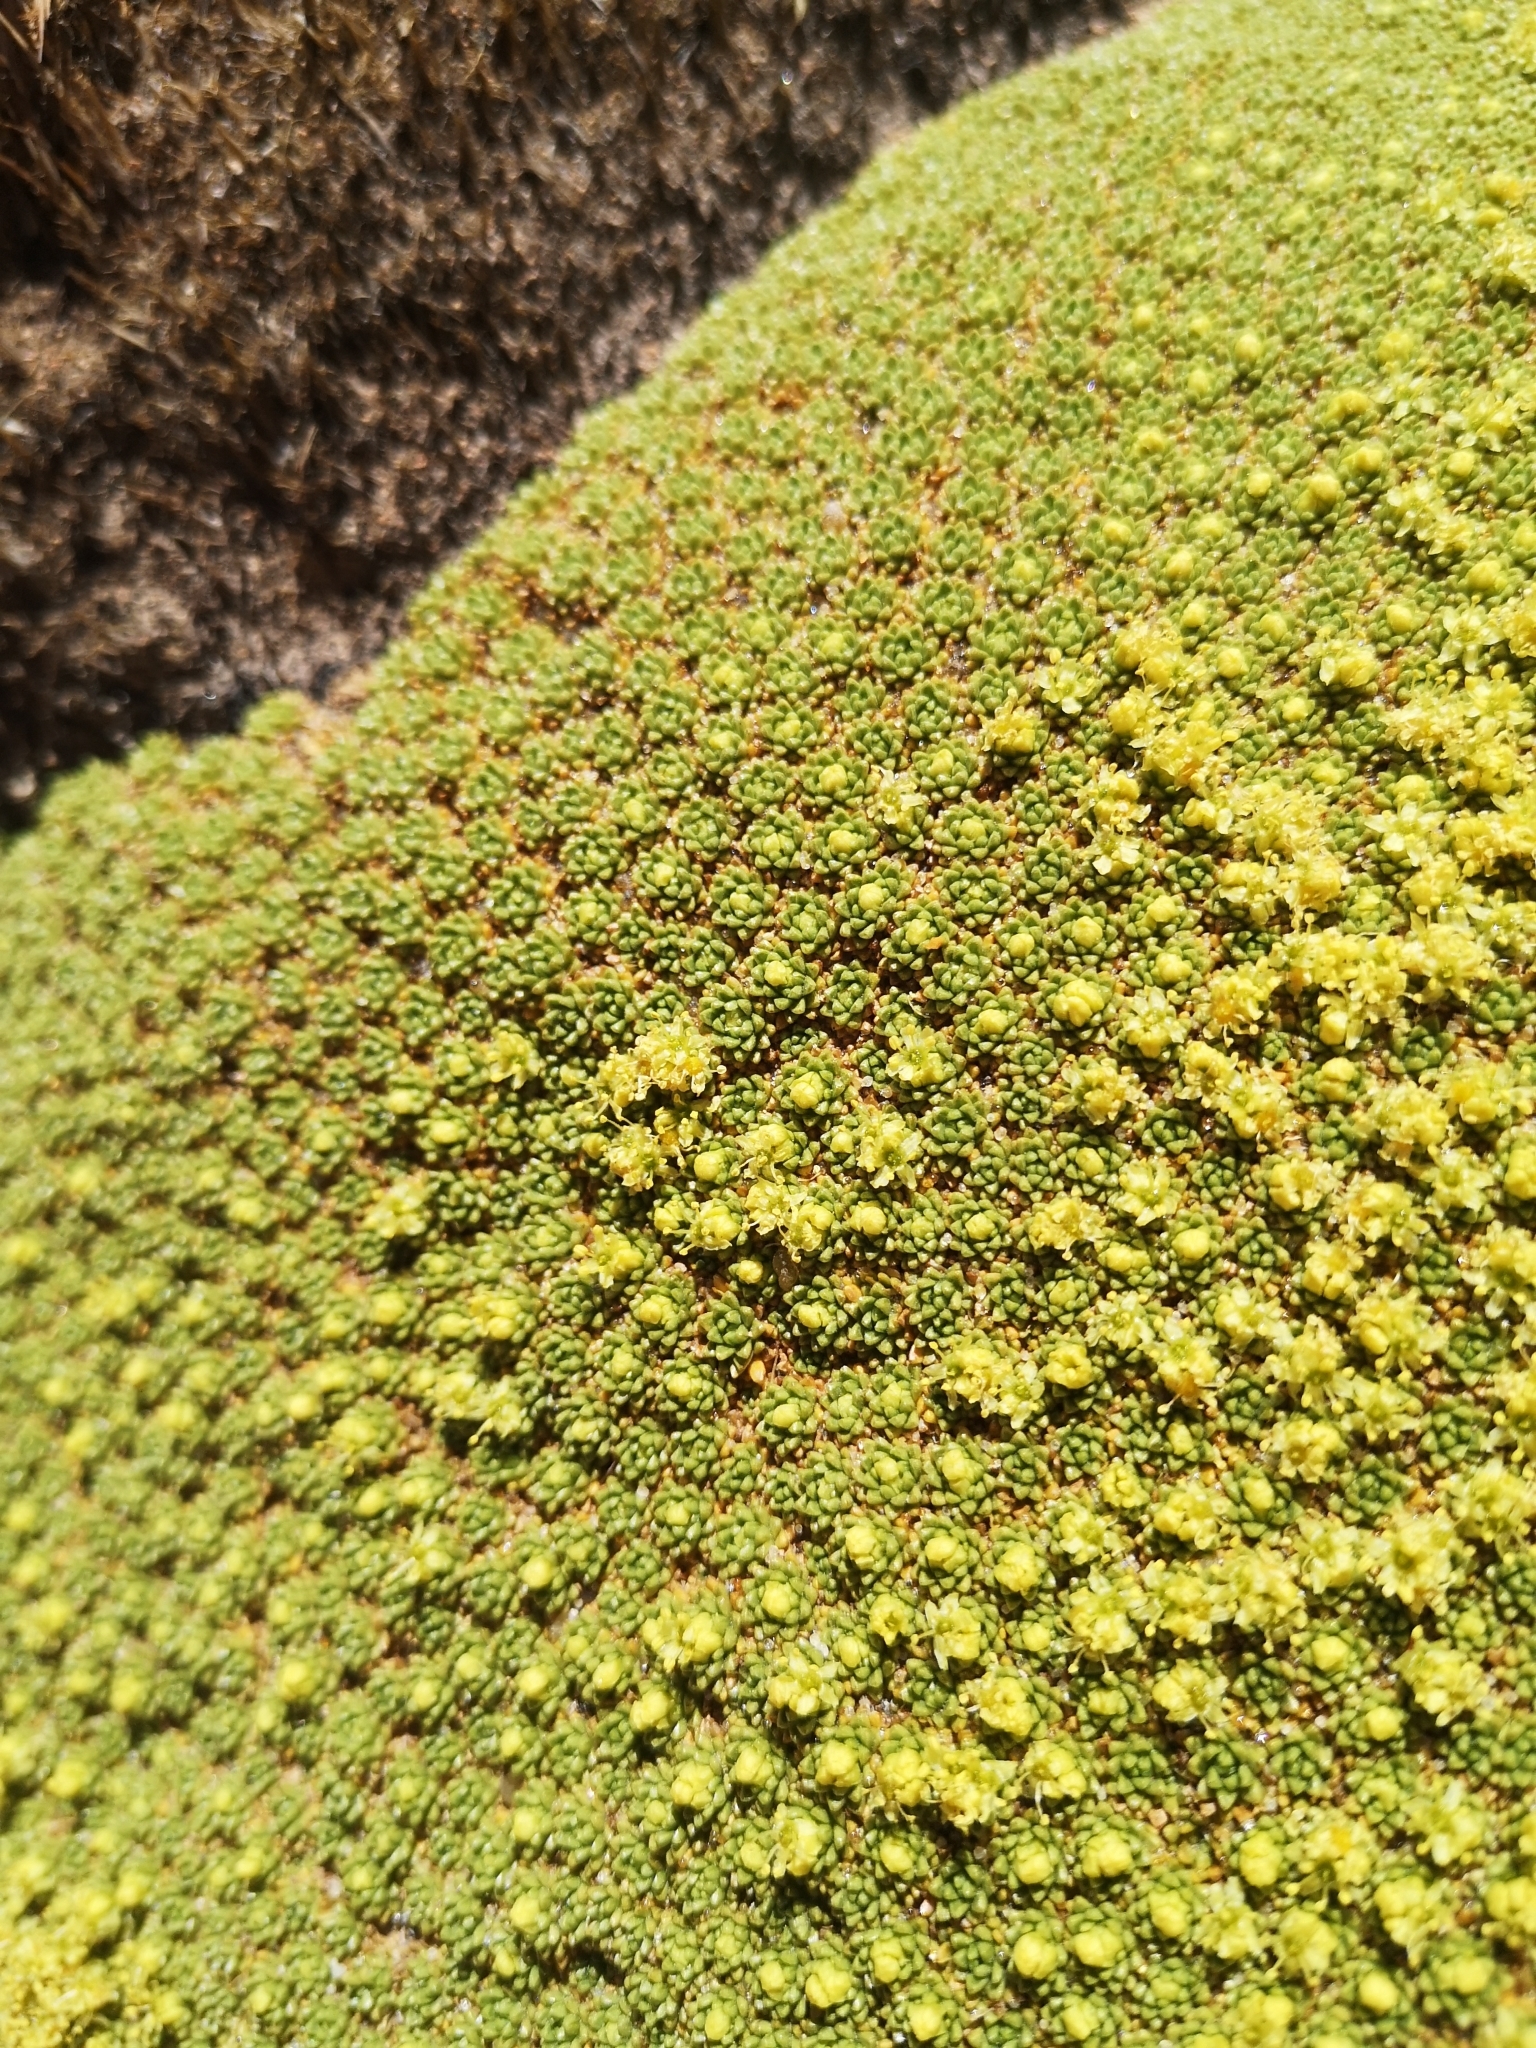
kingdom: Plantae
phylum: Tracheophyta
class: Magnoliopsida
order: Apiales
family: Apiaceae
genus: Azorella
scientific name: Azorella compacta
